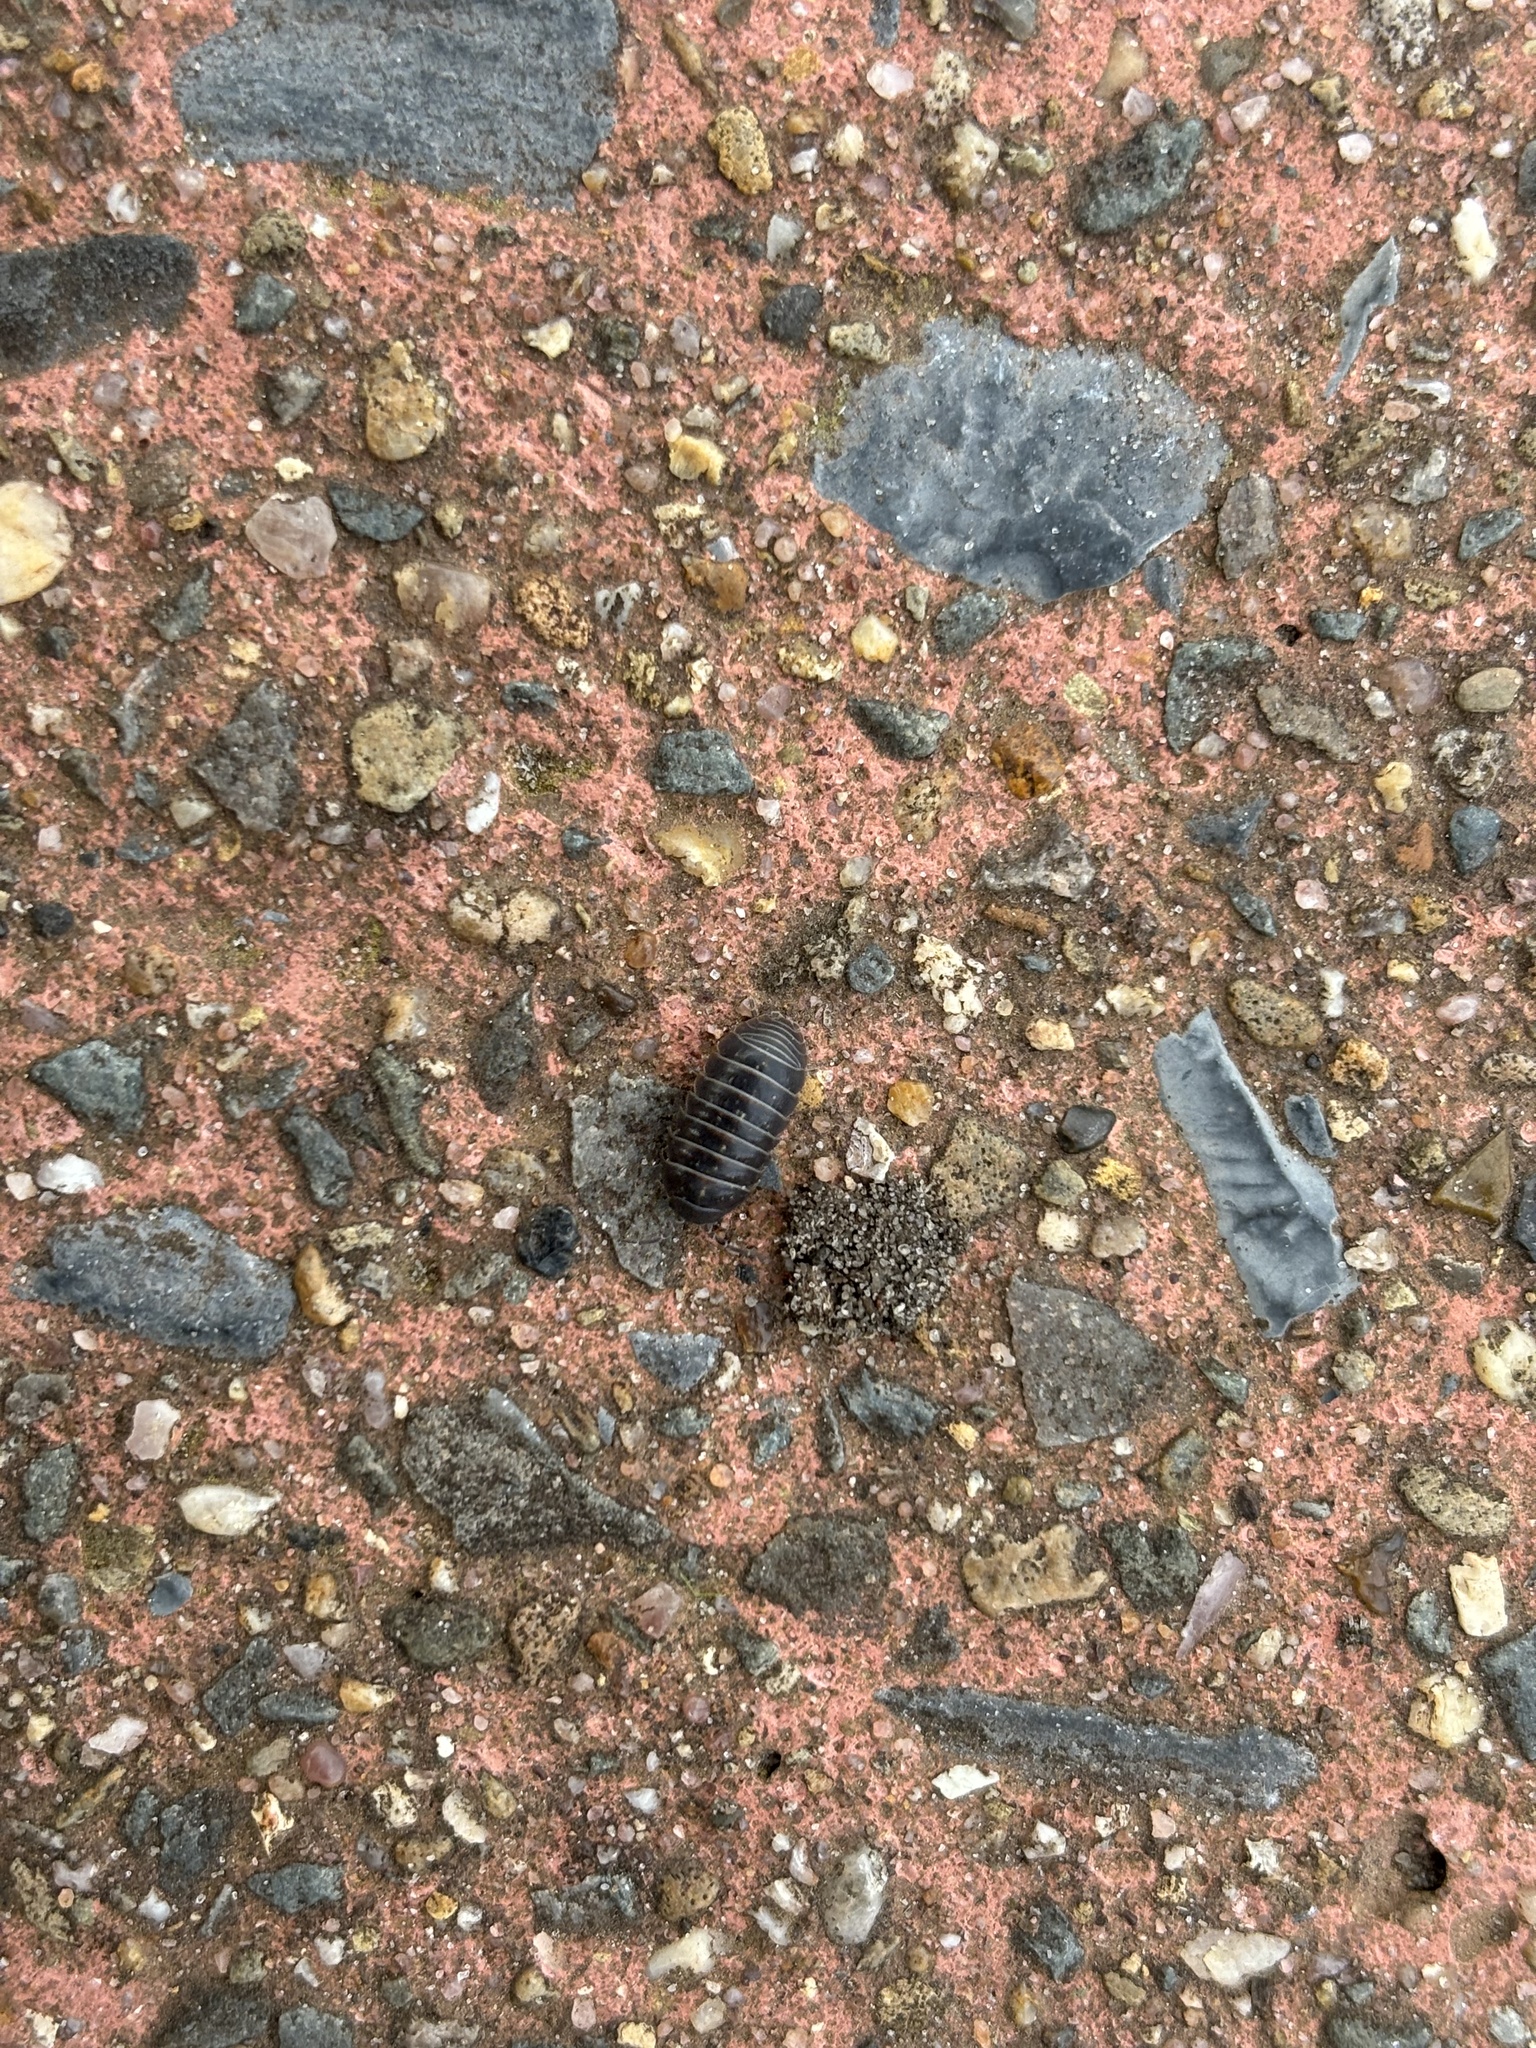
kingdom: Animalia
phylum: Arthropoda
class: Malacostraca
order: Isopoda
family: Armadillidiidae
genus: Armadillidium
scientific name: Armadillidium vulgare
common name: Common pill woodlouse
